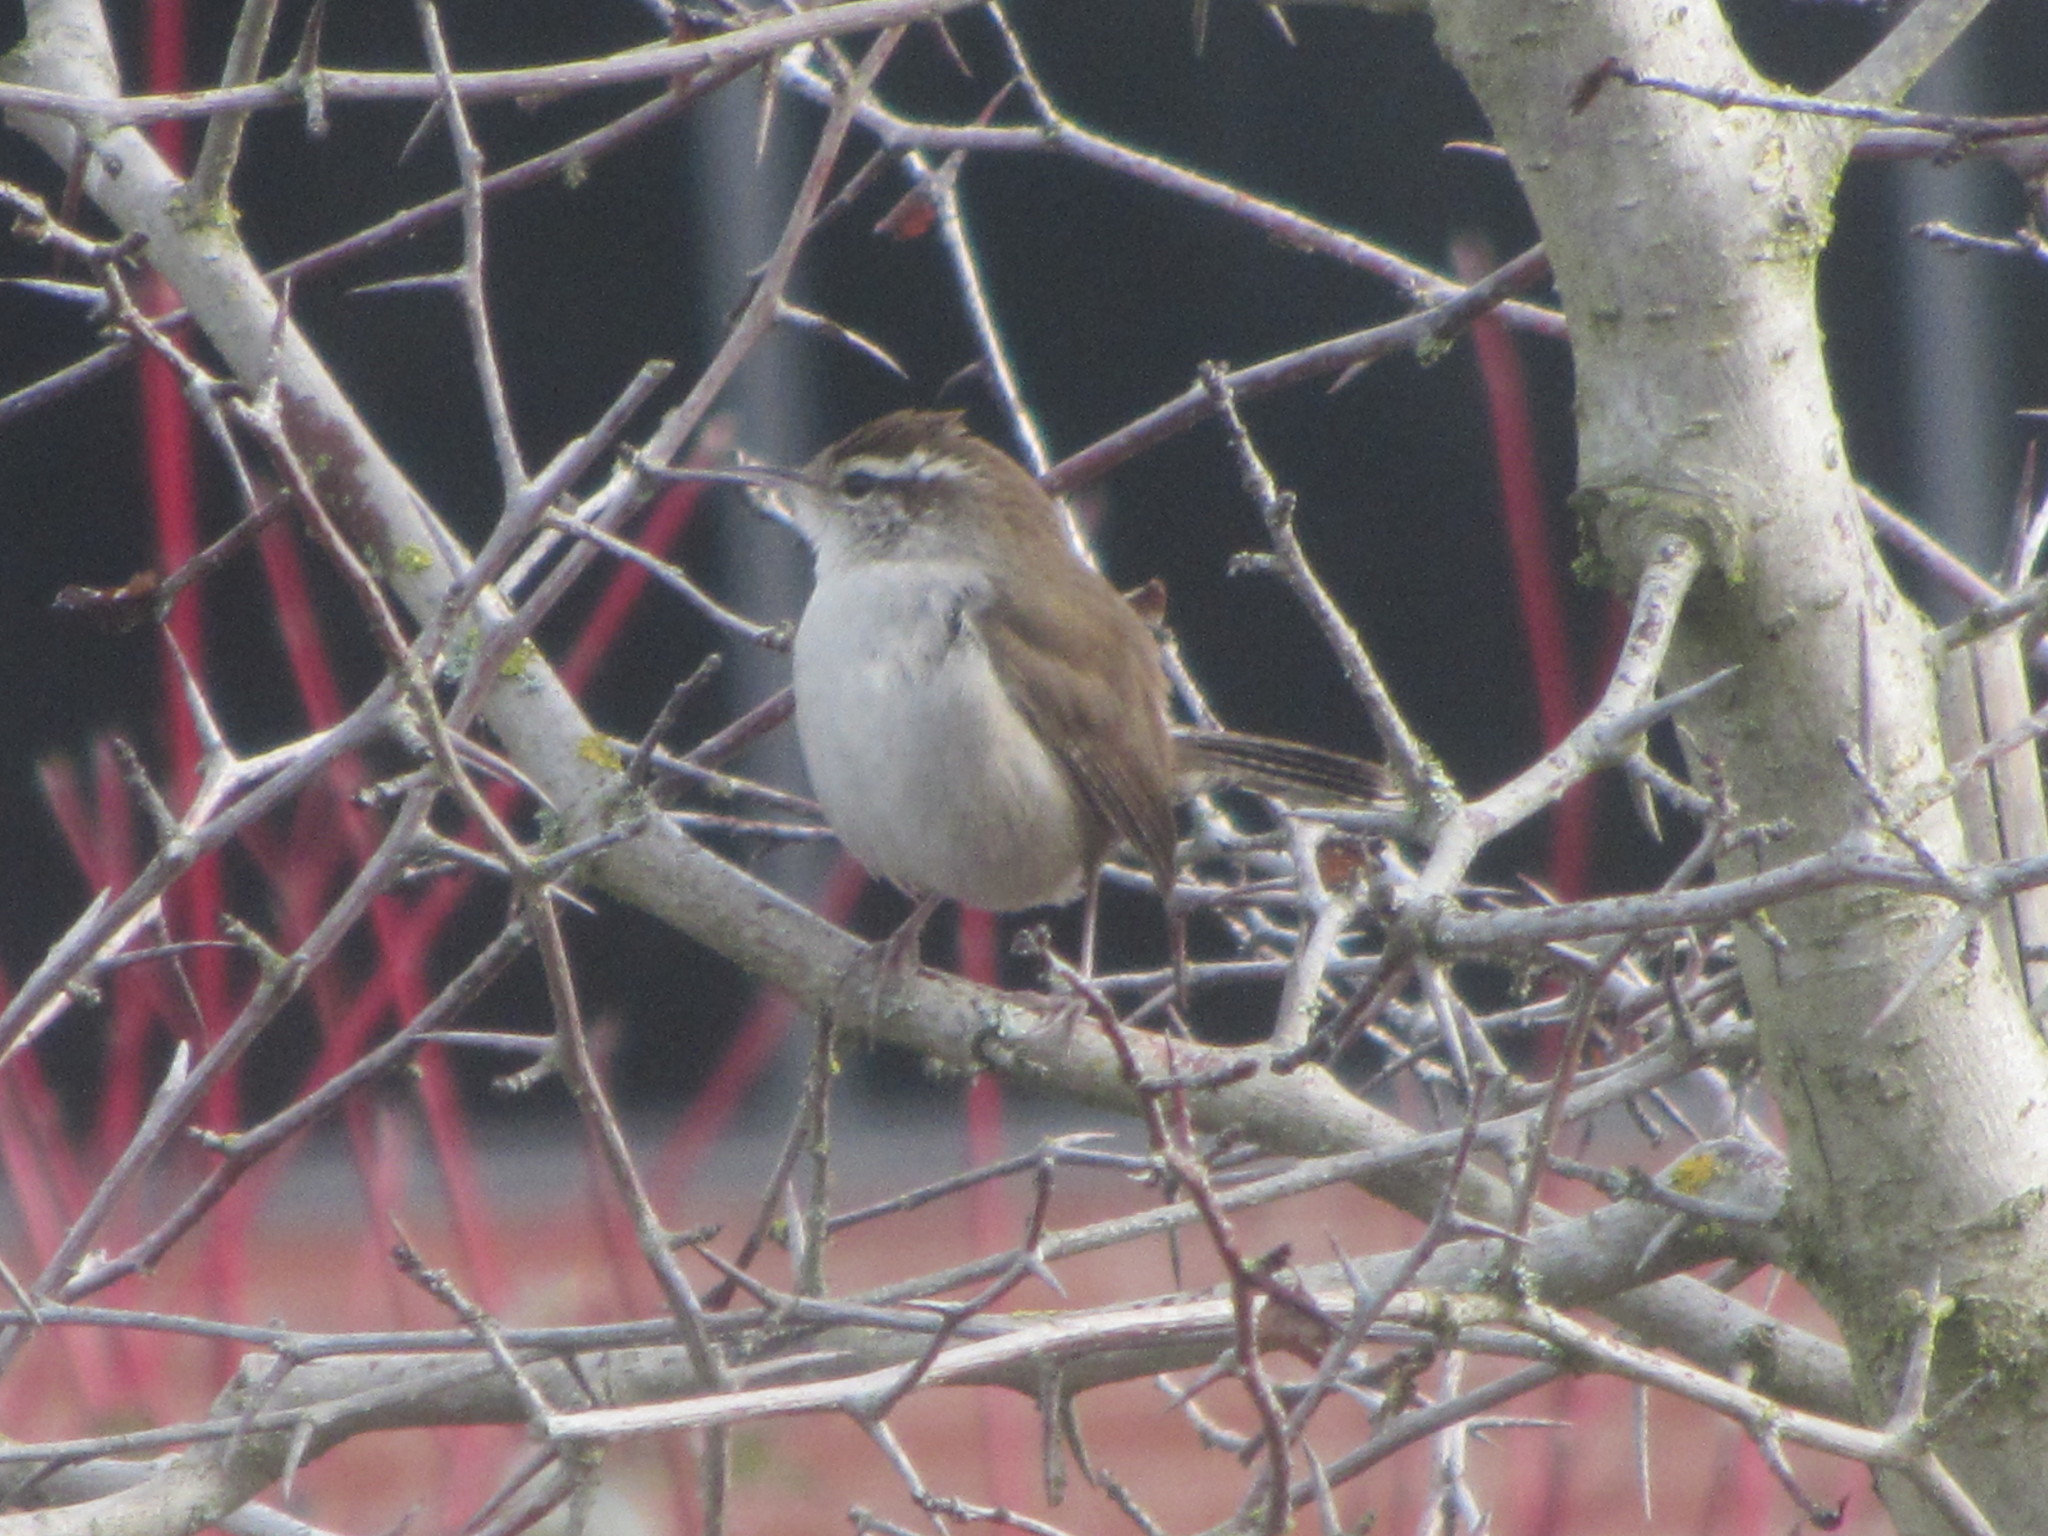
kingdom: Animalia
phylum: Chordata
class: Aves
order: Passeriformes
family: Troglodytidae
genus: Thryomanes
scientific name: Thryomanes bewickii
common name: Bewick's wren
